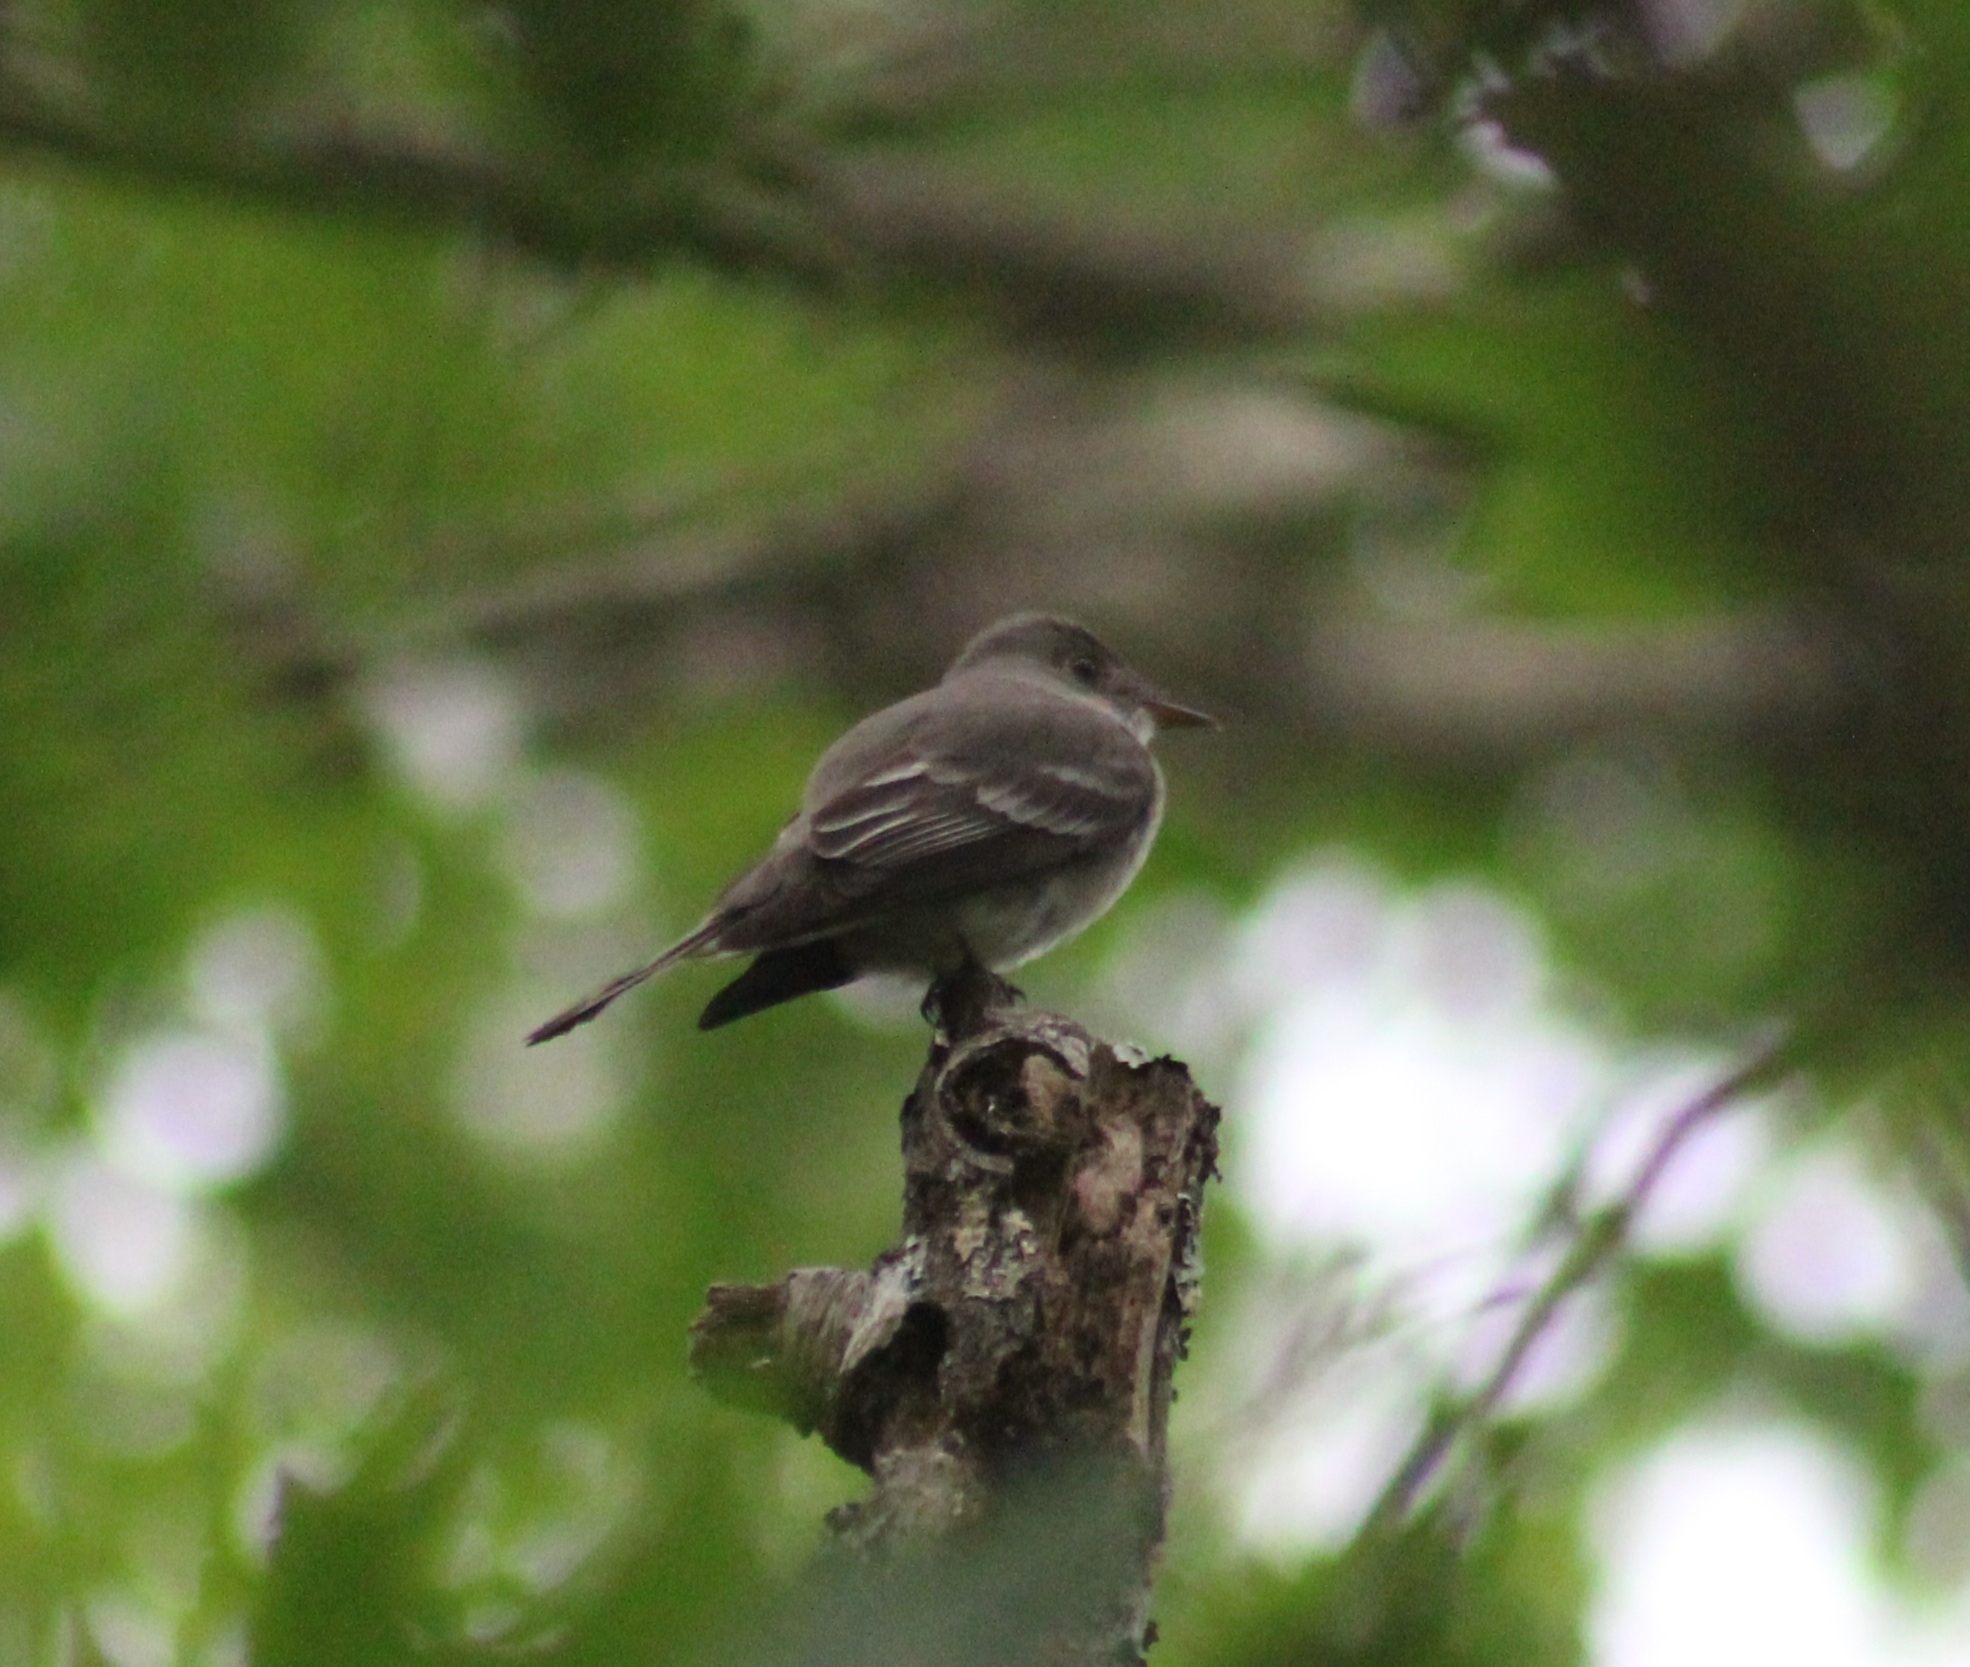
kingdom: Animalia
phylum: Chordata
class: Aves
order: Passeriformes
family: Tyrannidae
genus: Contopus
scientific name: Contopus virens
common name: Eastern wood-pewee
